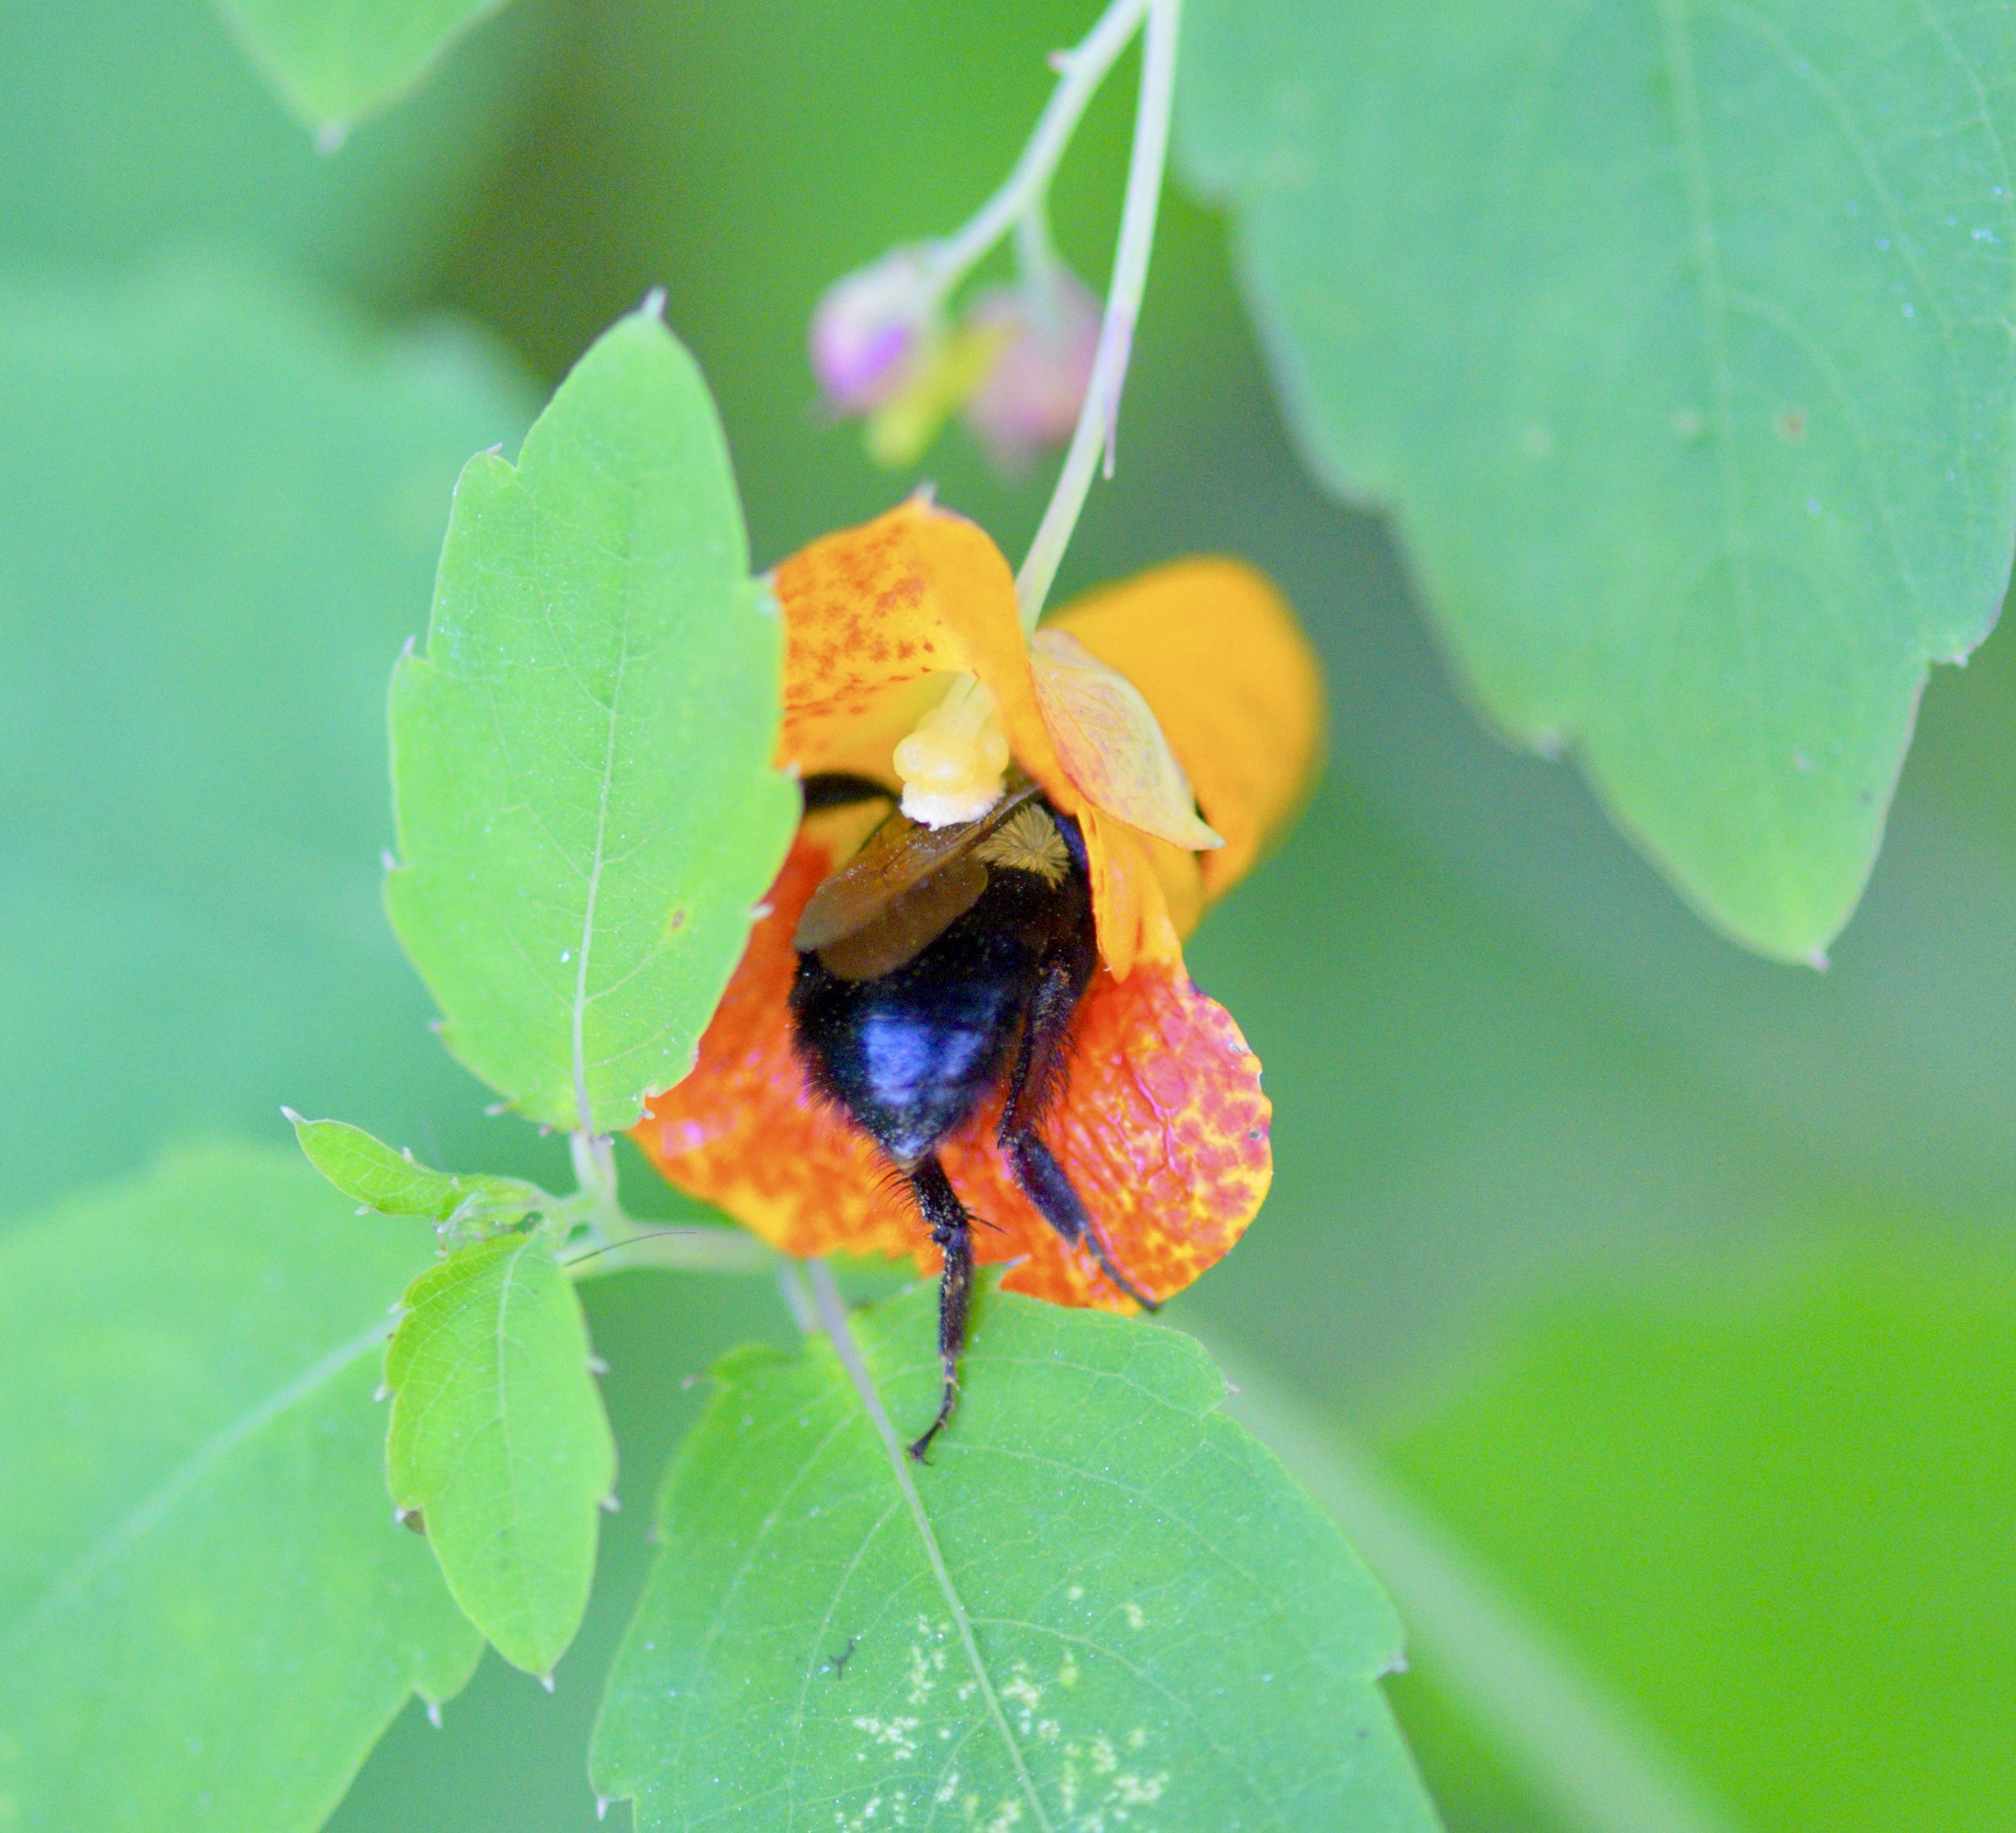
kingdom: Animalia
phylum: Arthropoda
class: Insecta
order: Hymenoptera
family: Apidae
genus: Bombus
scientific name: Bombus impatiens
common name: Common eastern bumble bee
